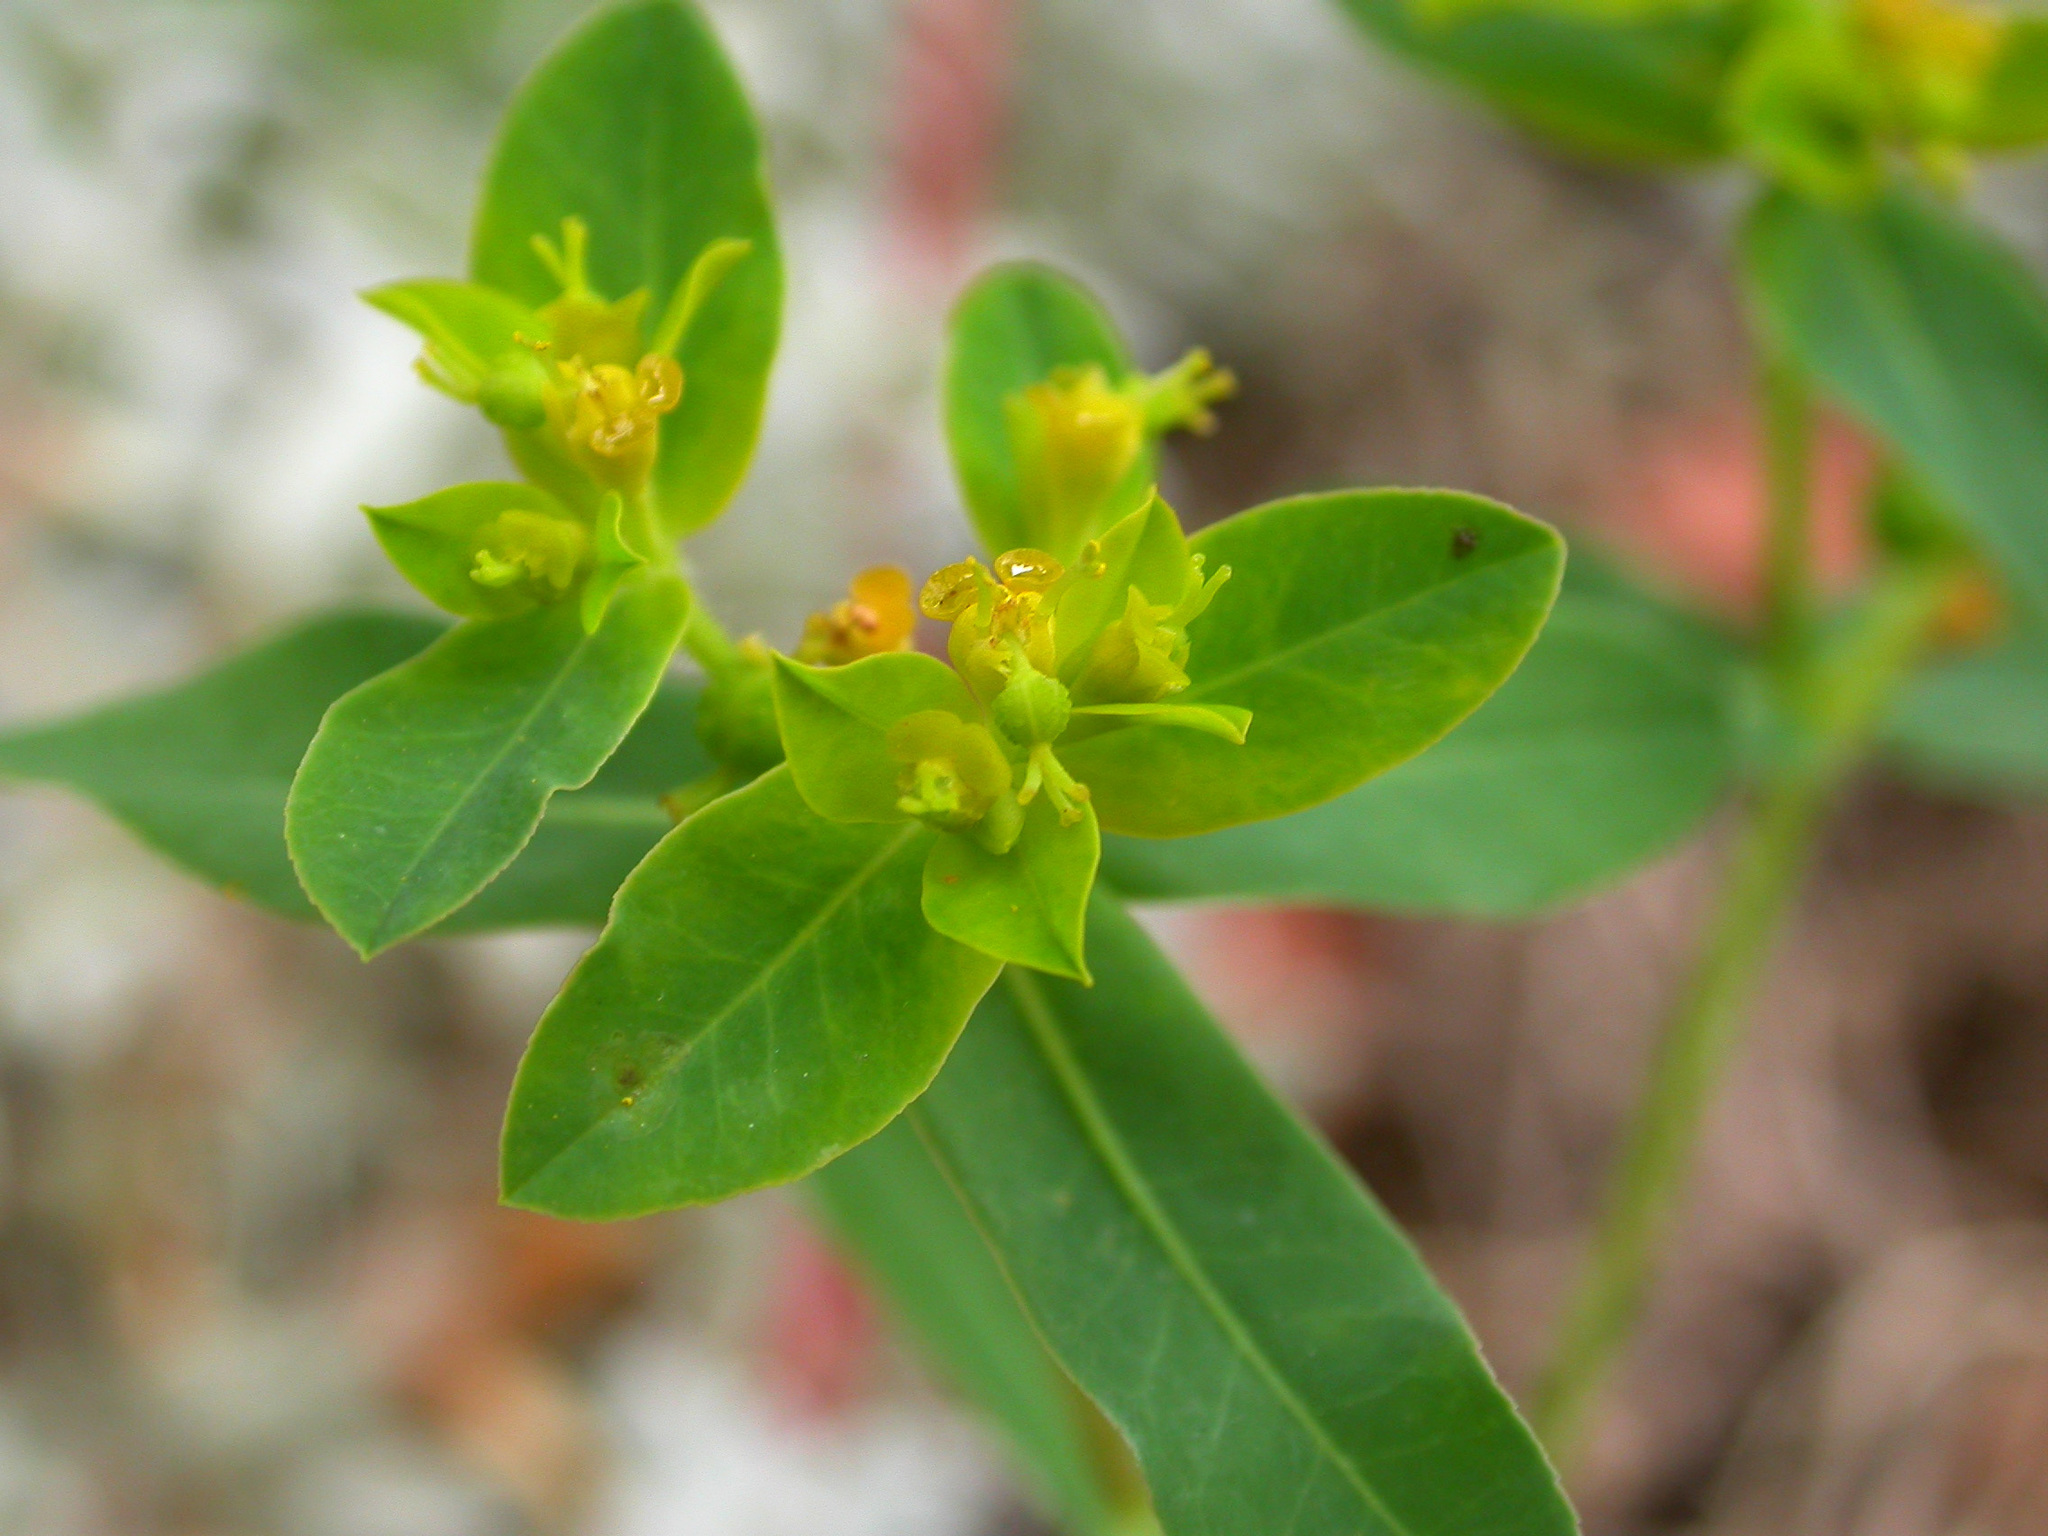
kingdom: Plantae
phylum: Tracheophyta
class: Magnoliopsida
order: Malpighiales
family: Euphorbiaceae
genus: Euphorbia
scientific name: Euphorbia oblongata
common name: Balkan spurge
